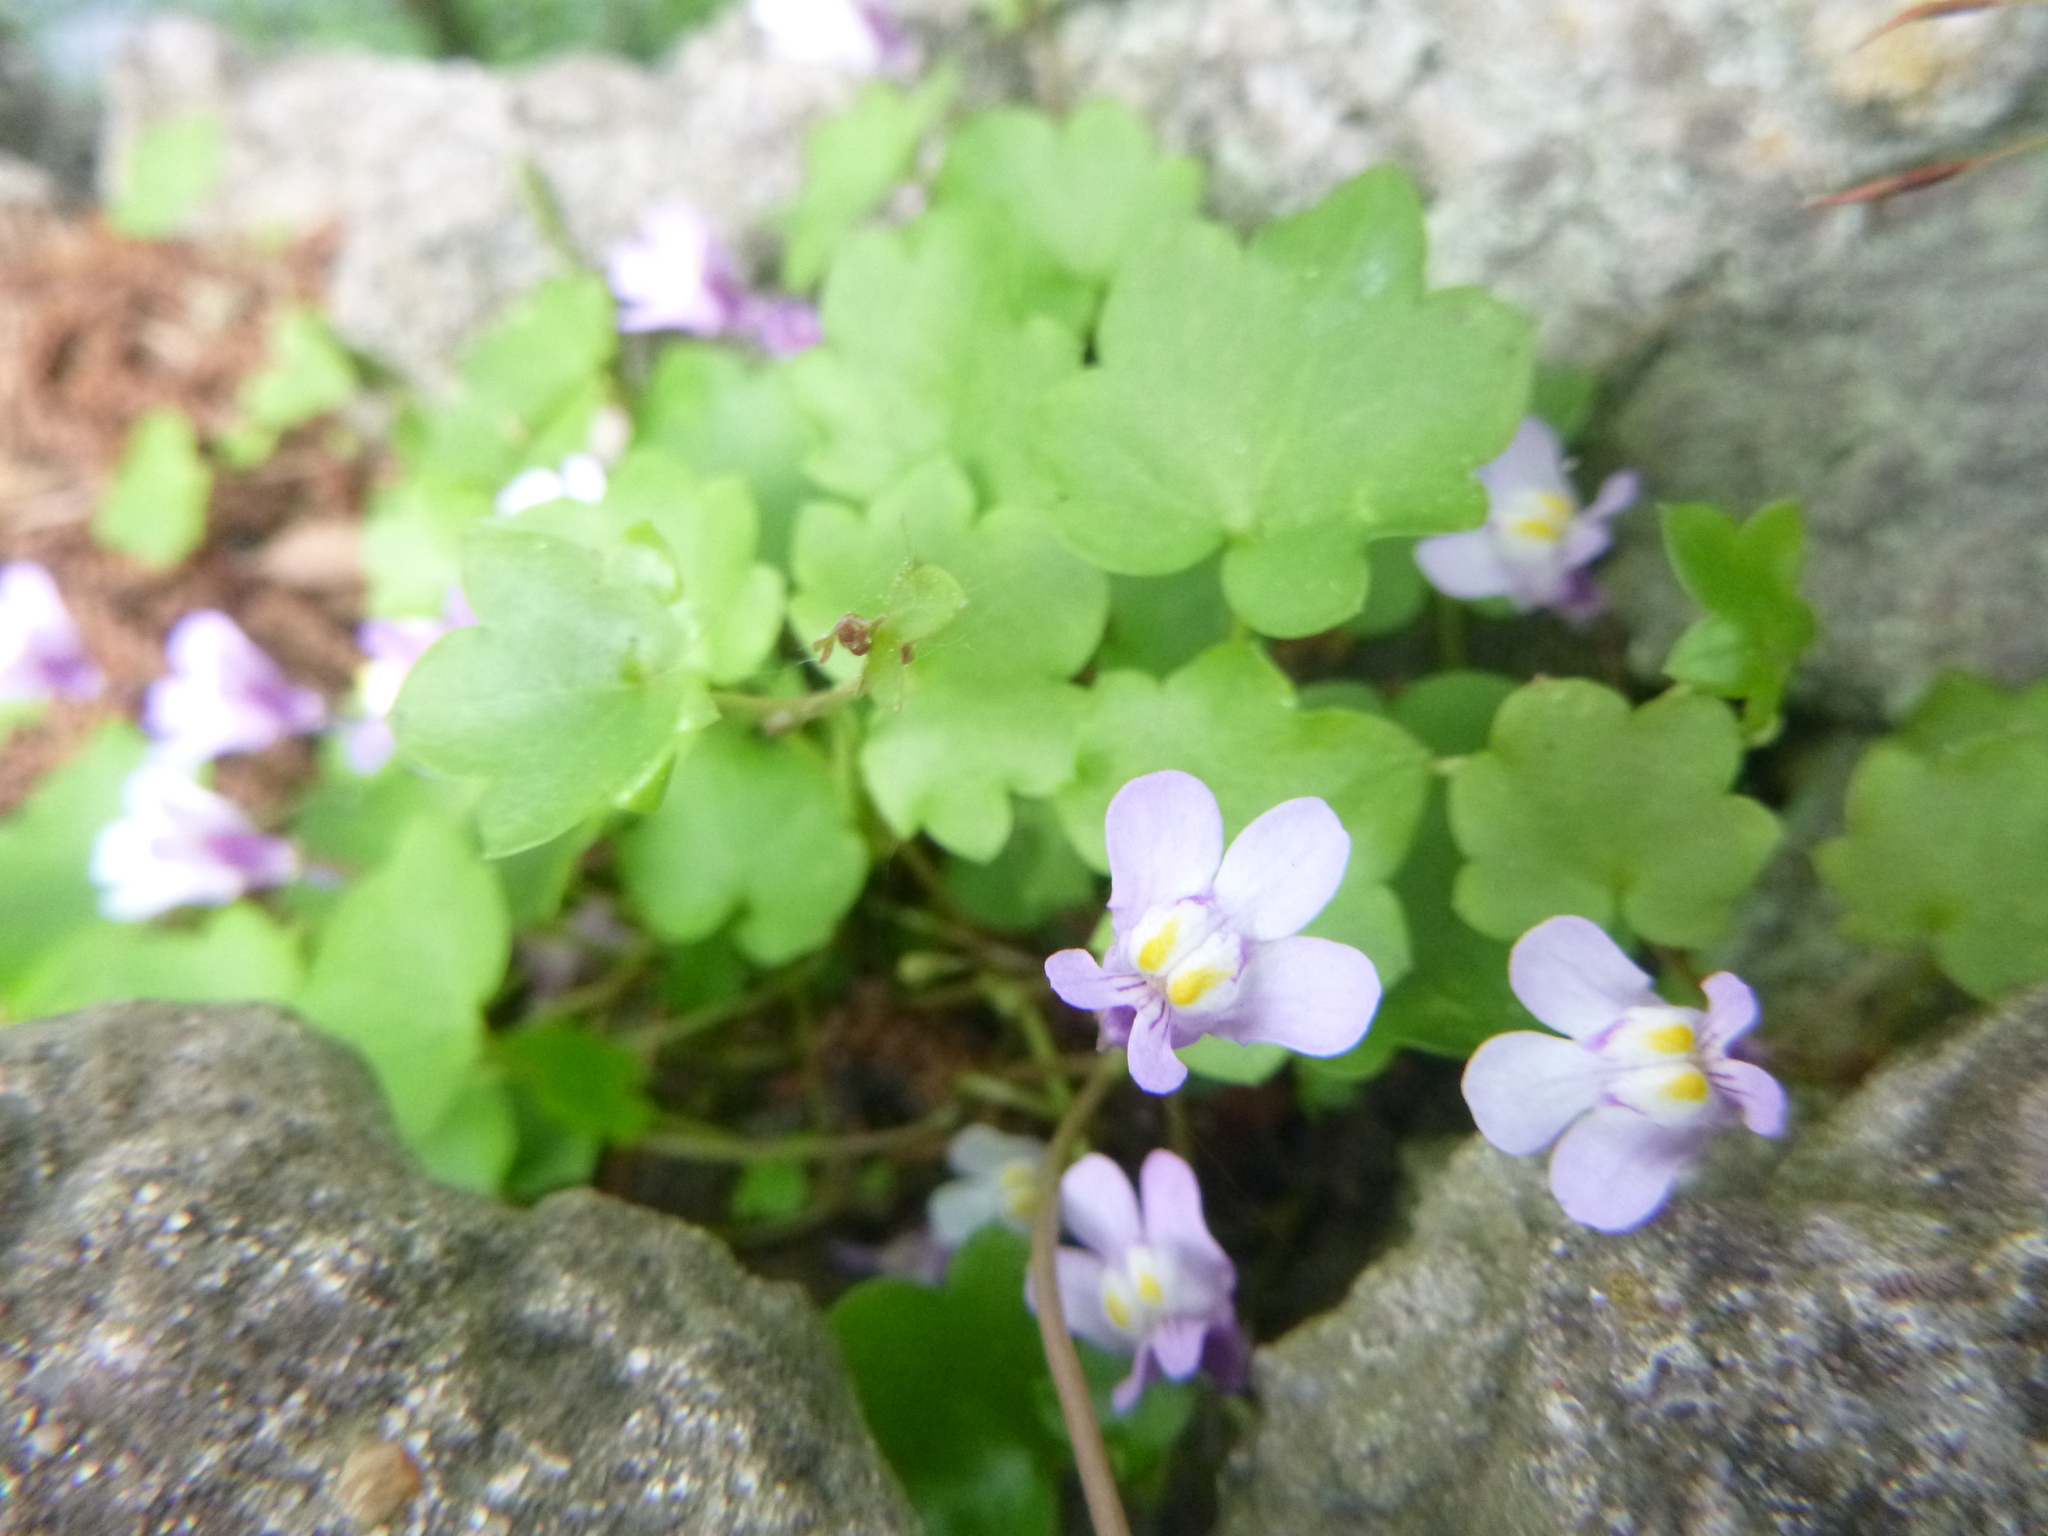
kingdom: Plantae
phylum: Tracheophyta
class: Magnoliopsida
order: Lamiales
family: Plantaginaceae
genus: Cymbalaria
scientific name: Cymbalaria muralis
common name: Ivy-leaved toadflax
